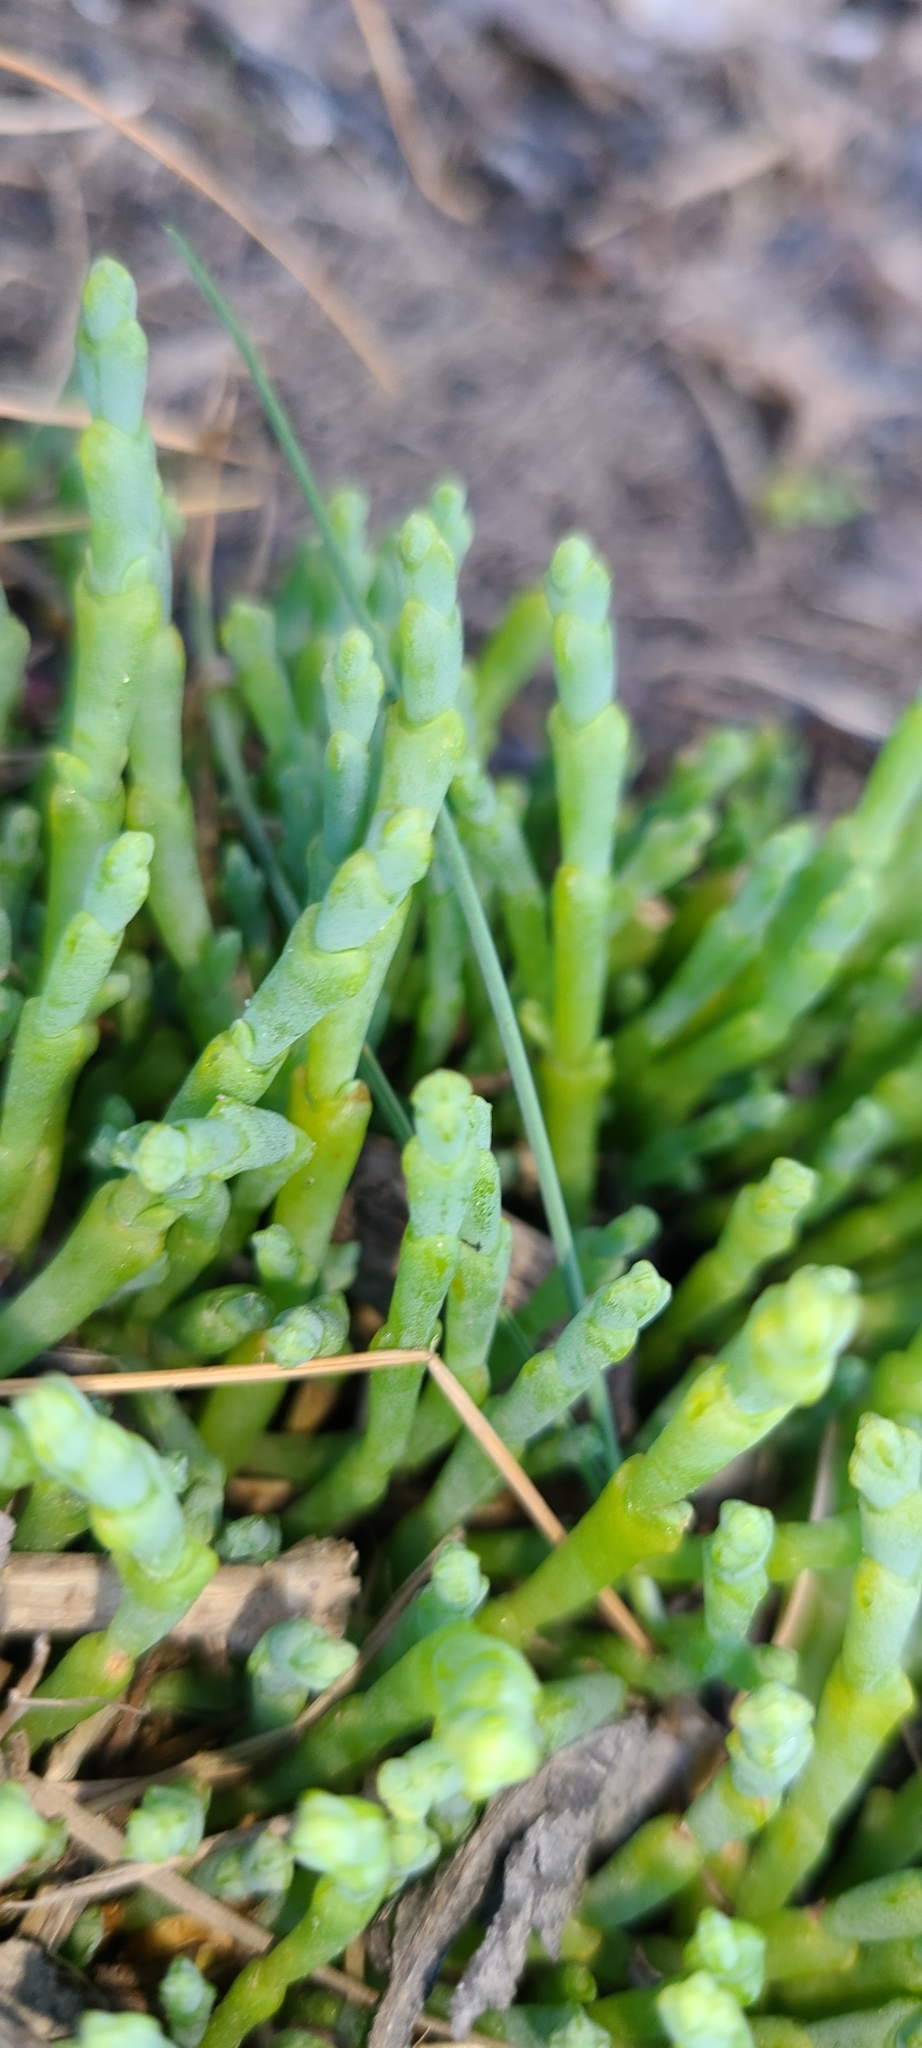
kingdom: Plantae
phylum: Tracheophyta
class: Magnoliopsida
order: Caryophyllales
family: Amaranthaceae
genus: Salicornia
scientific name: Salicornia quinqueflora
